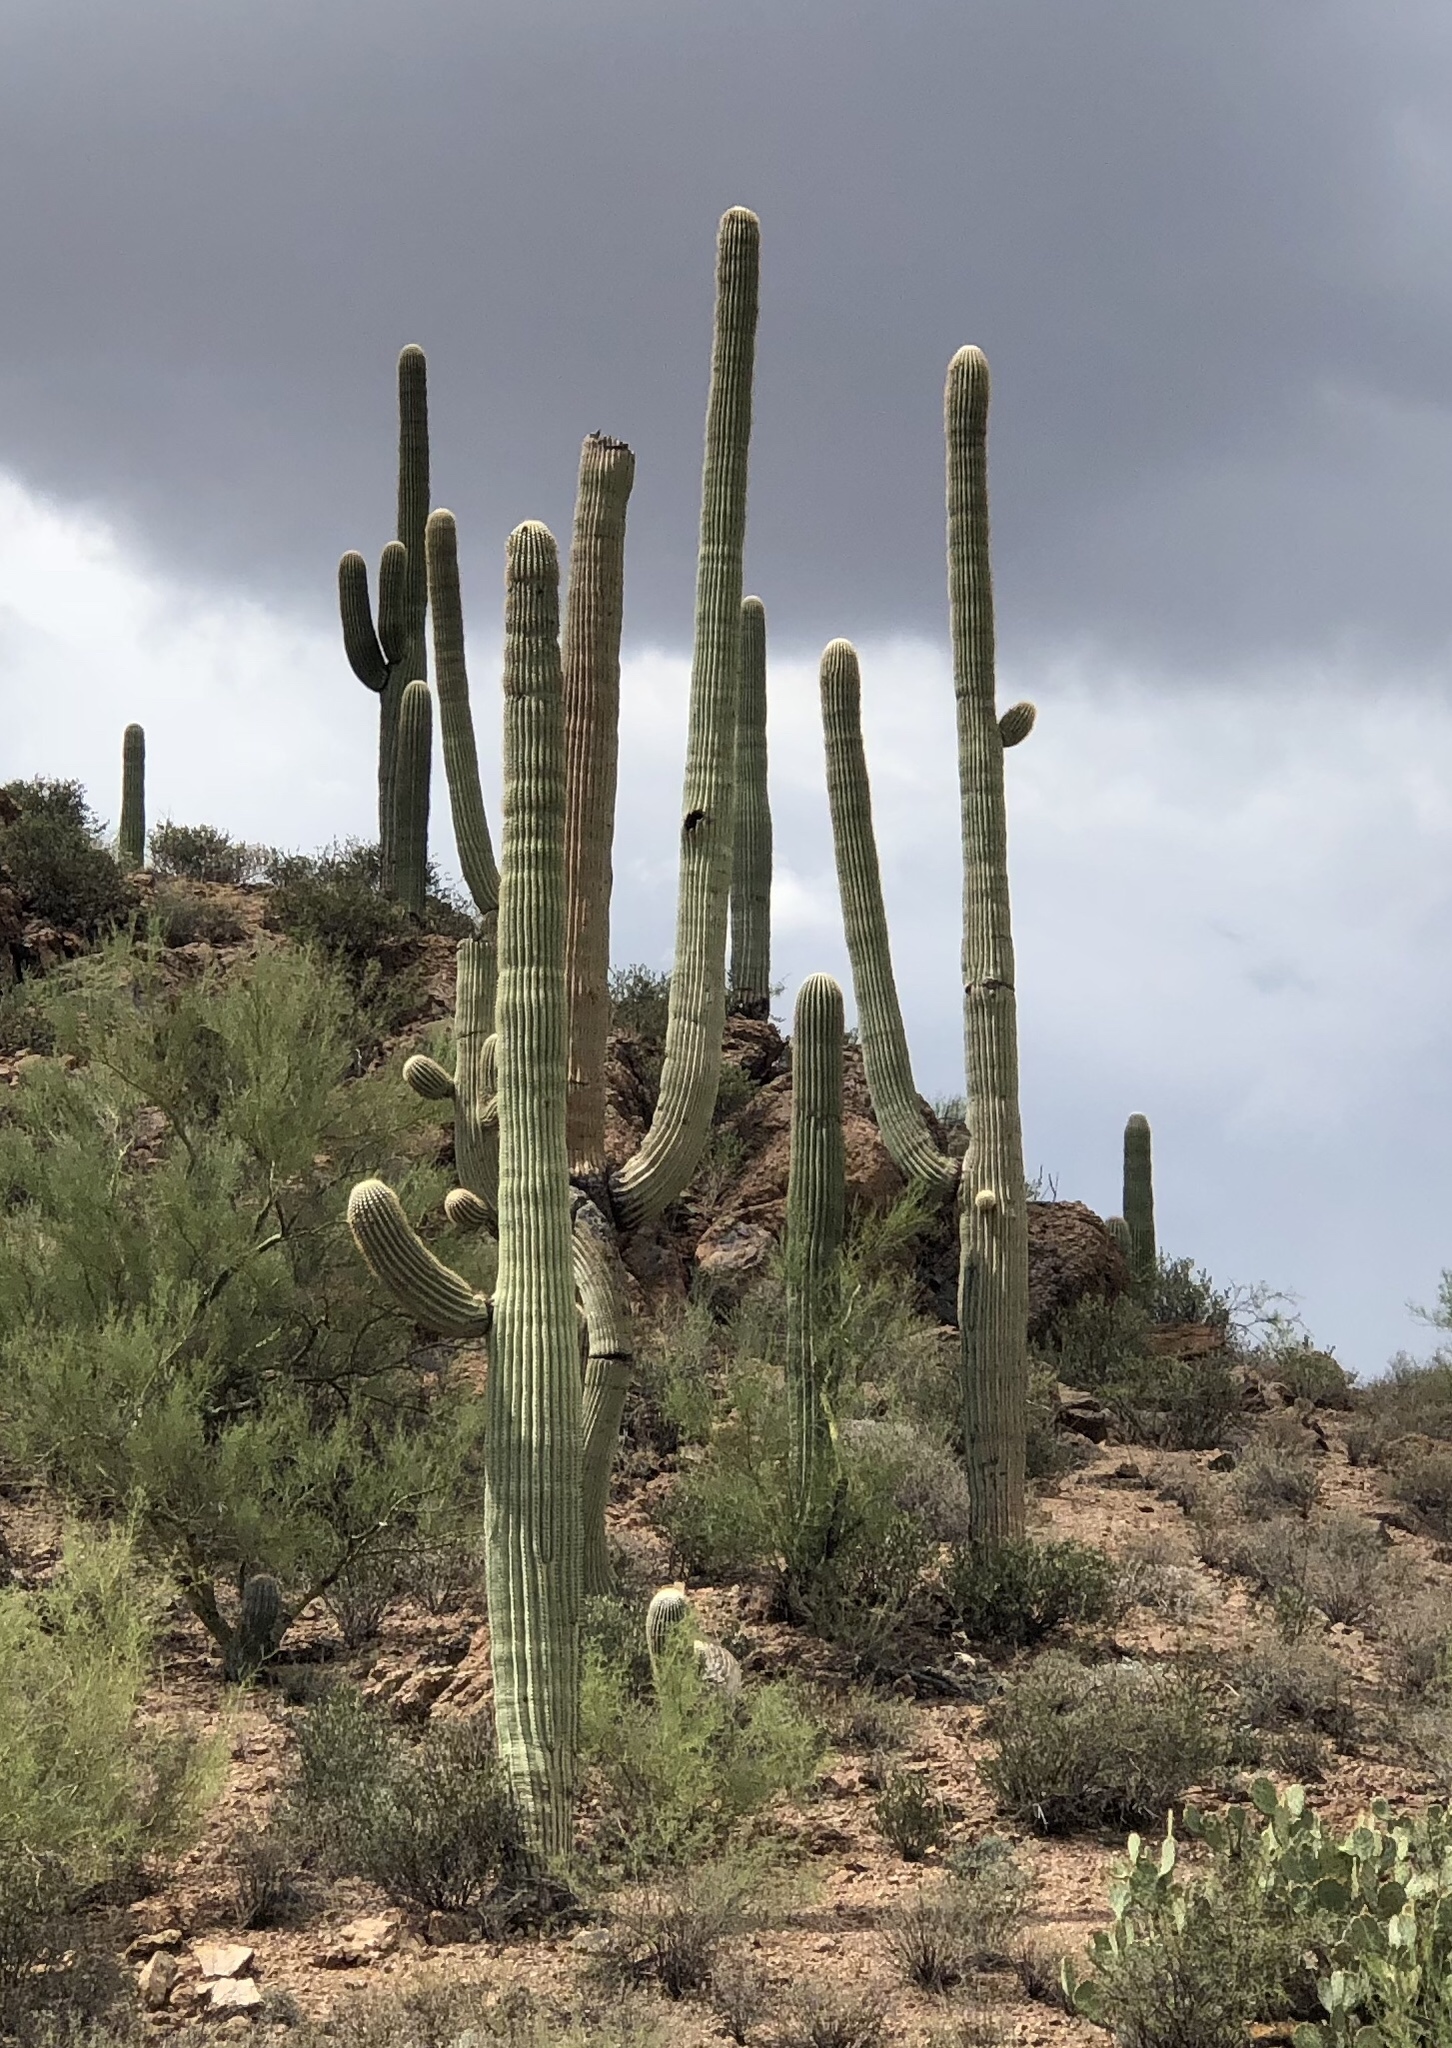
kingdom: Plantae
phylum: Tracheophyta
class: Magnoliopsida
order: Caryophyllales
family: Cactaceae
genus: Carnegiea
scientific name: Carnegiea gigantea
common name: Saguaro
